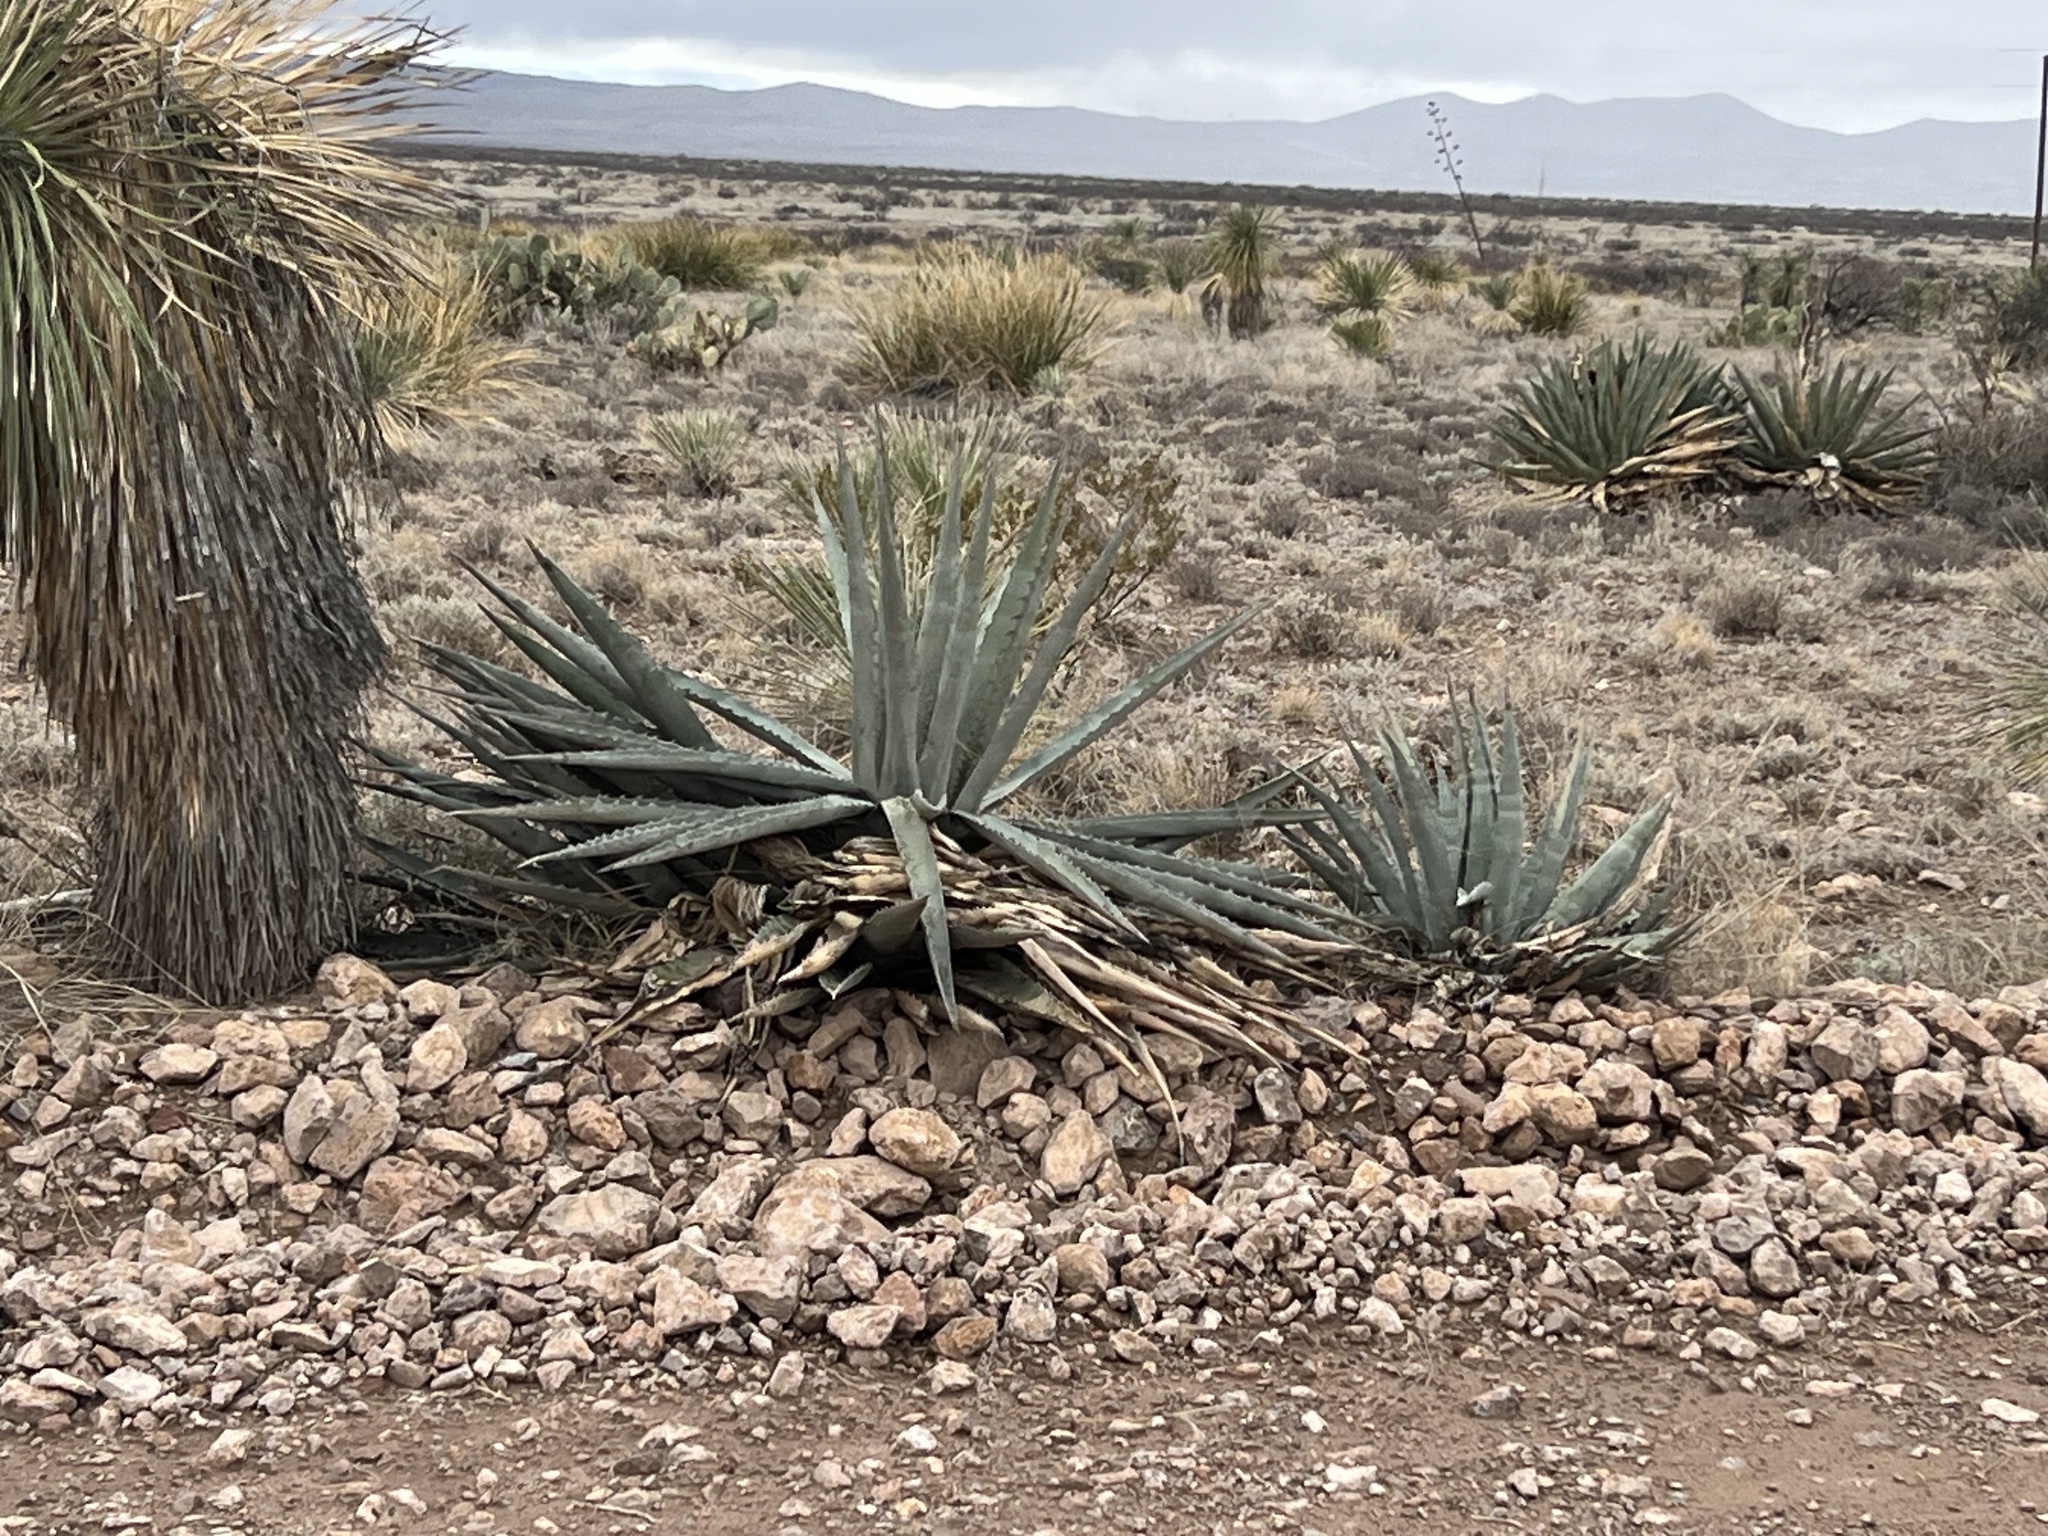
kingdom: Plantae
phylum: Tracheophyta
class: Liliopsida
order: Asparagales
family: Asparagaceae
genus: Agave
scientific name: Agave palmeri
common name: Palmer agave
